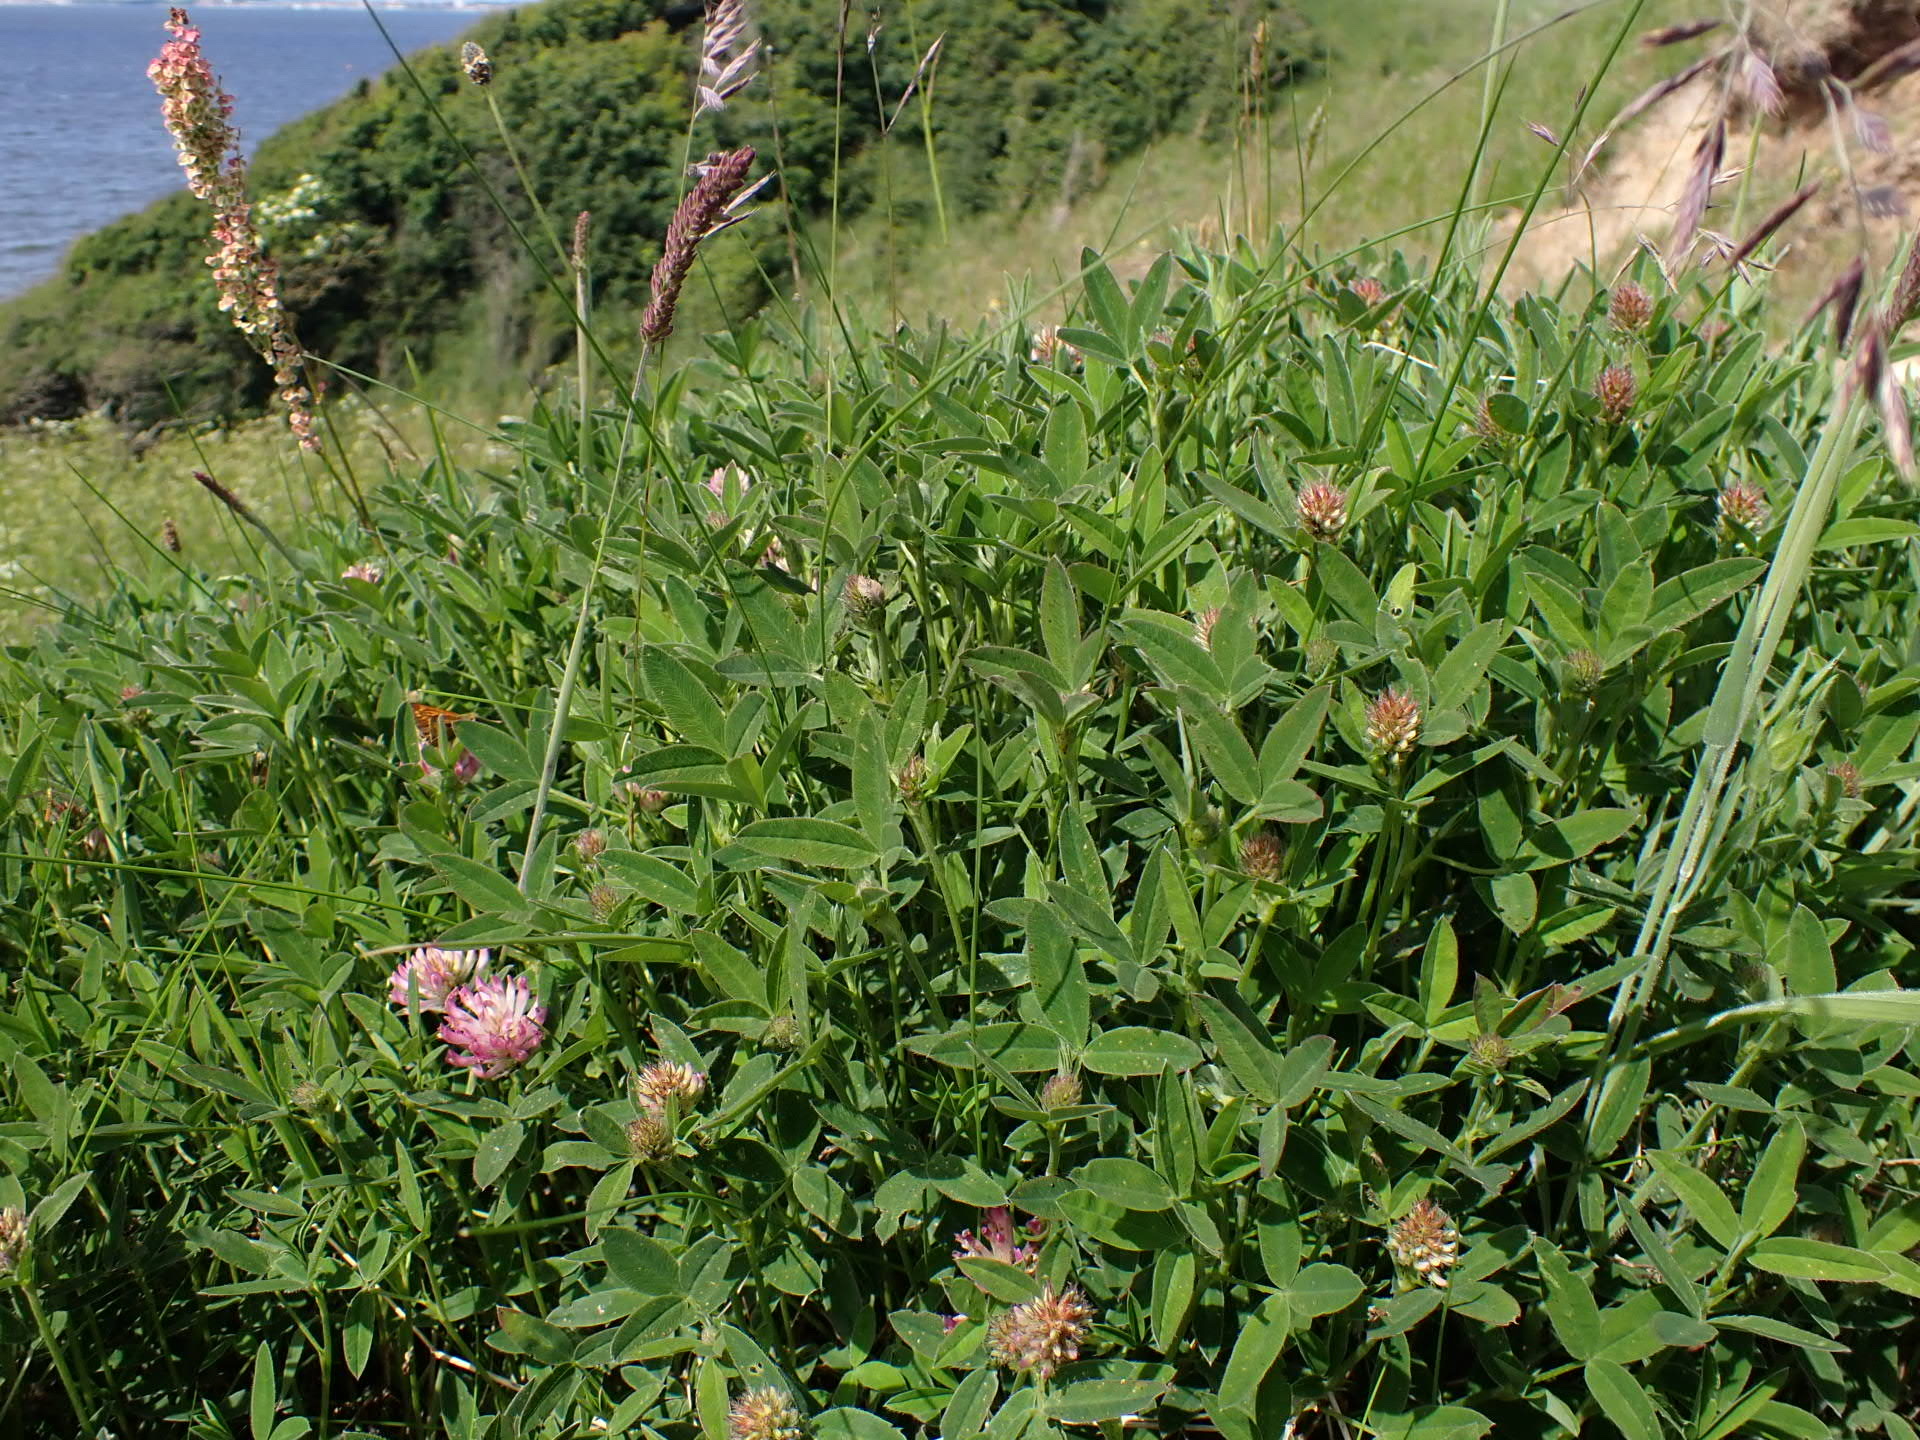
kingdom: Plantae
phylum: Tracheophyta
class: Magnoliopsida
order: Fabales
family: Fabaceae
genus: Trifolium
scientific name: Trifolium medium
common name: Zigzag clover
